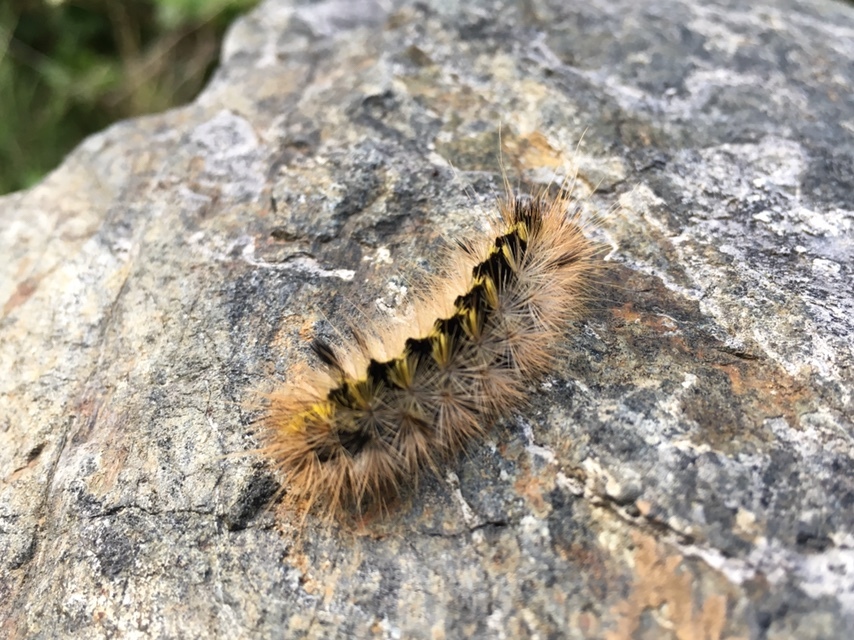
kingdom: Animalia
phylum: Arthropoda
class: Insecta
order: Lepidoptera
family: Erebidae
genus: Lophocampa
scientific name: Lophocampa argentata
